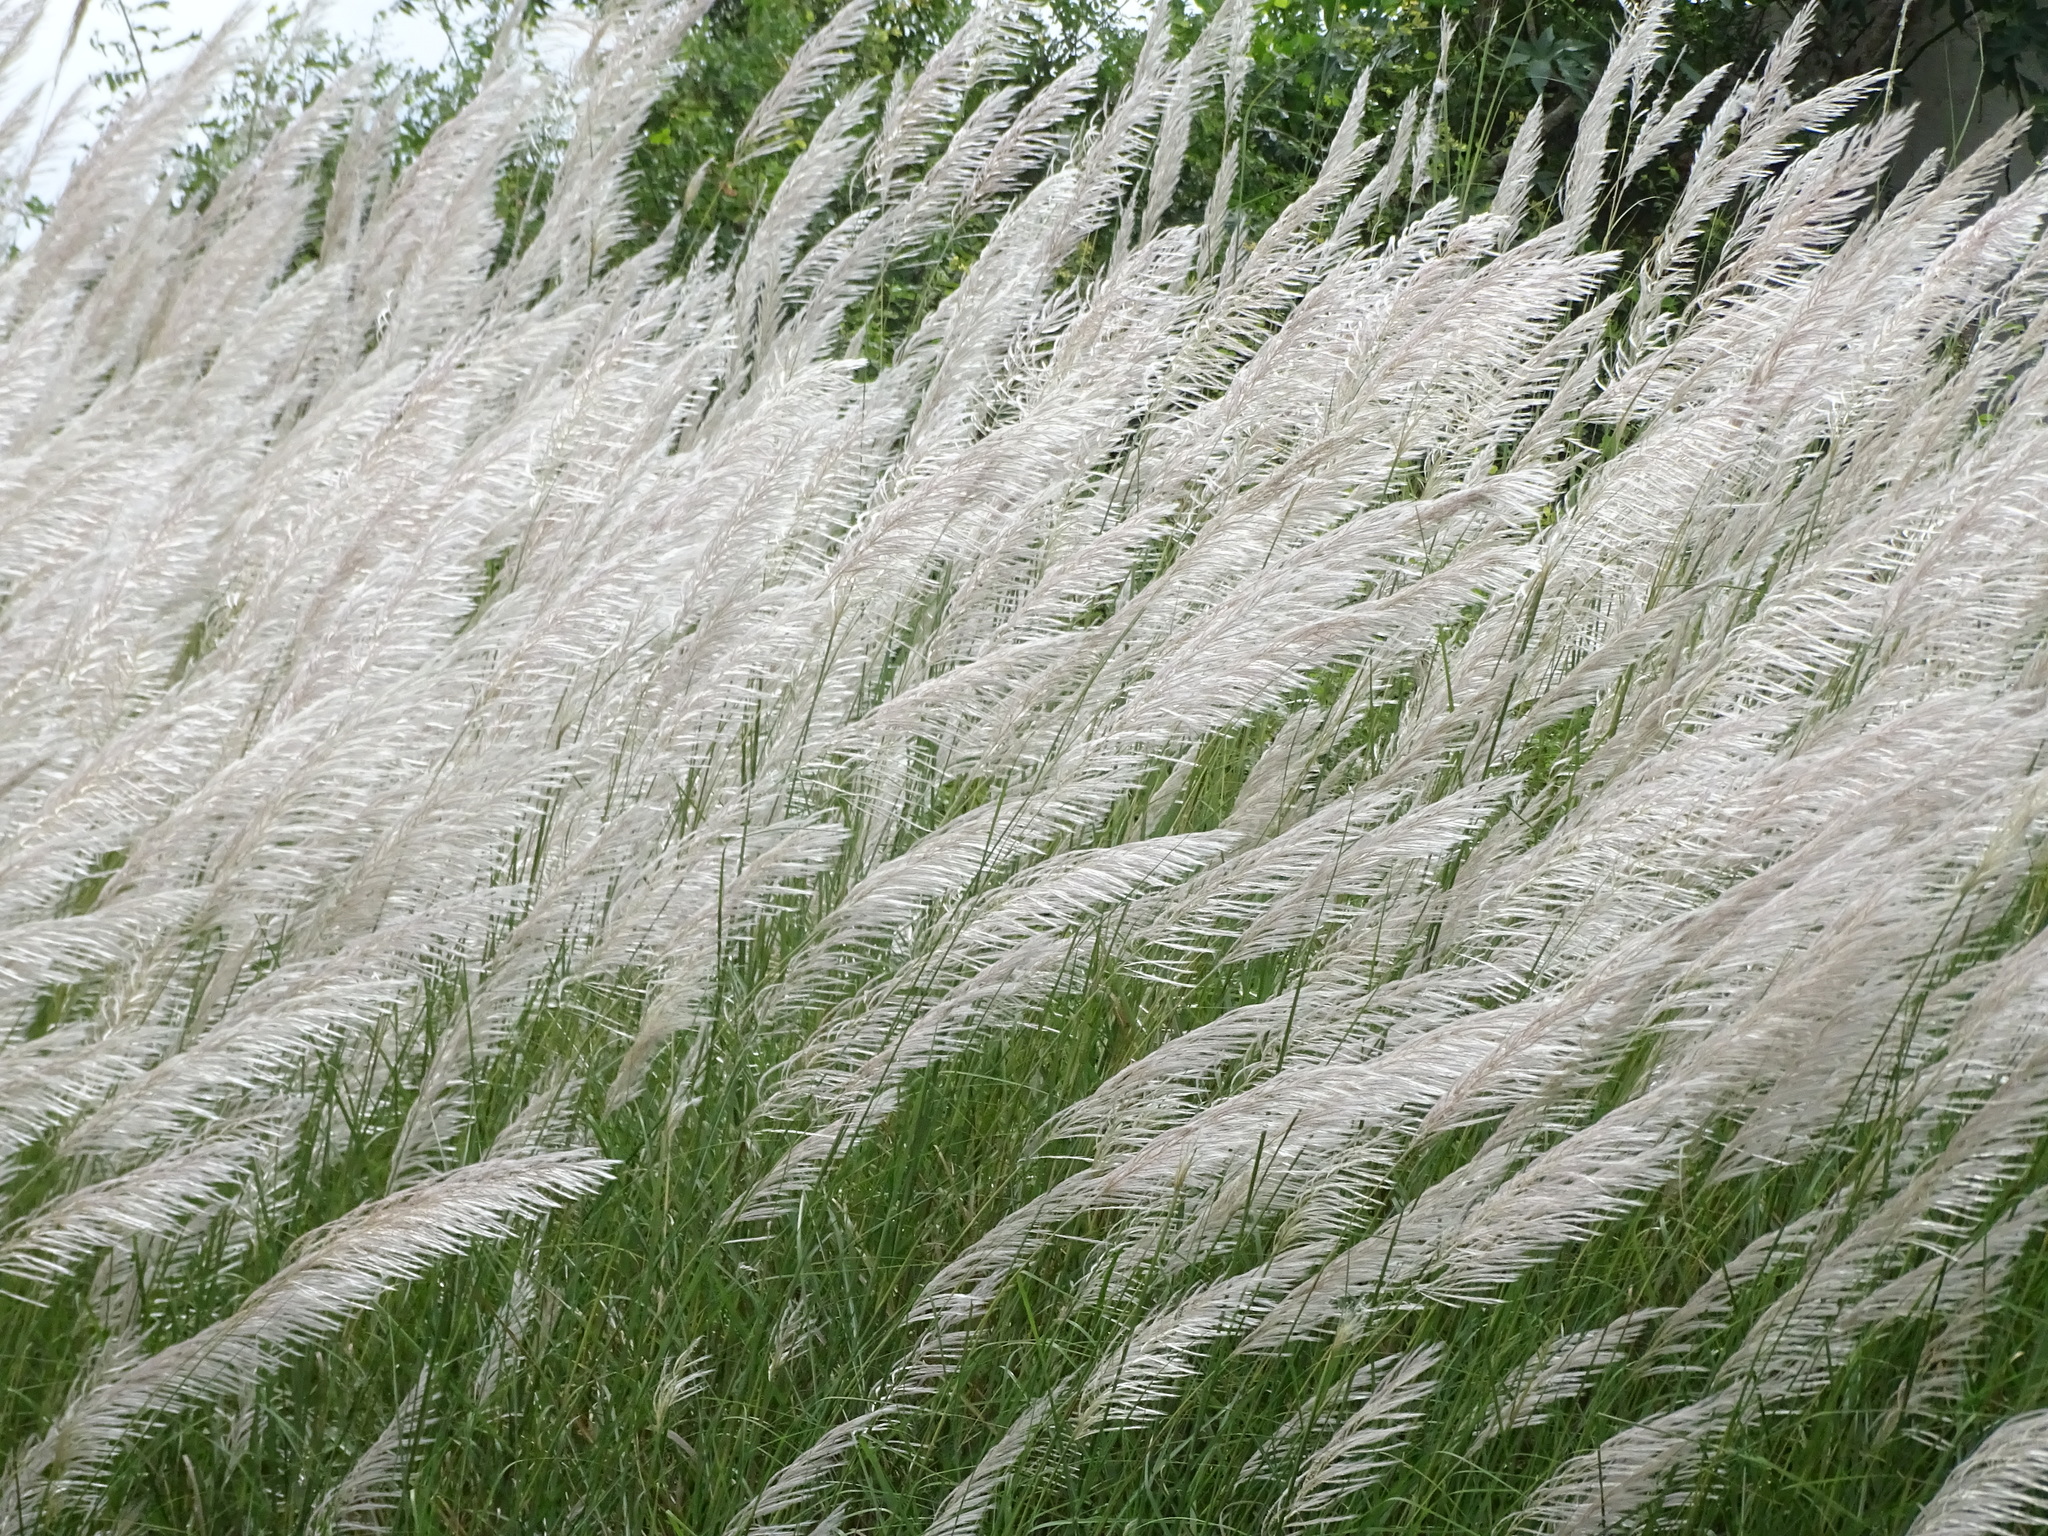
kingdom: Plantae
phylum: Tracheophyta
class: Liliopsida
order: Poales
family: Poaceae
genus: Saccharum
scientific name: Saccharum spontaneum
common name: Wild sugarcane
